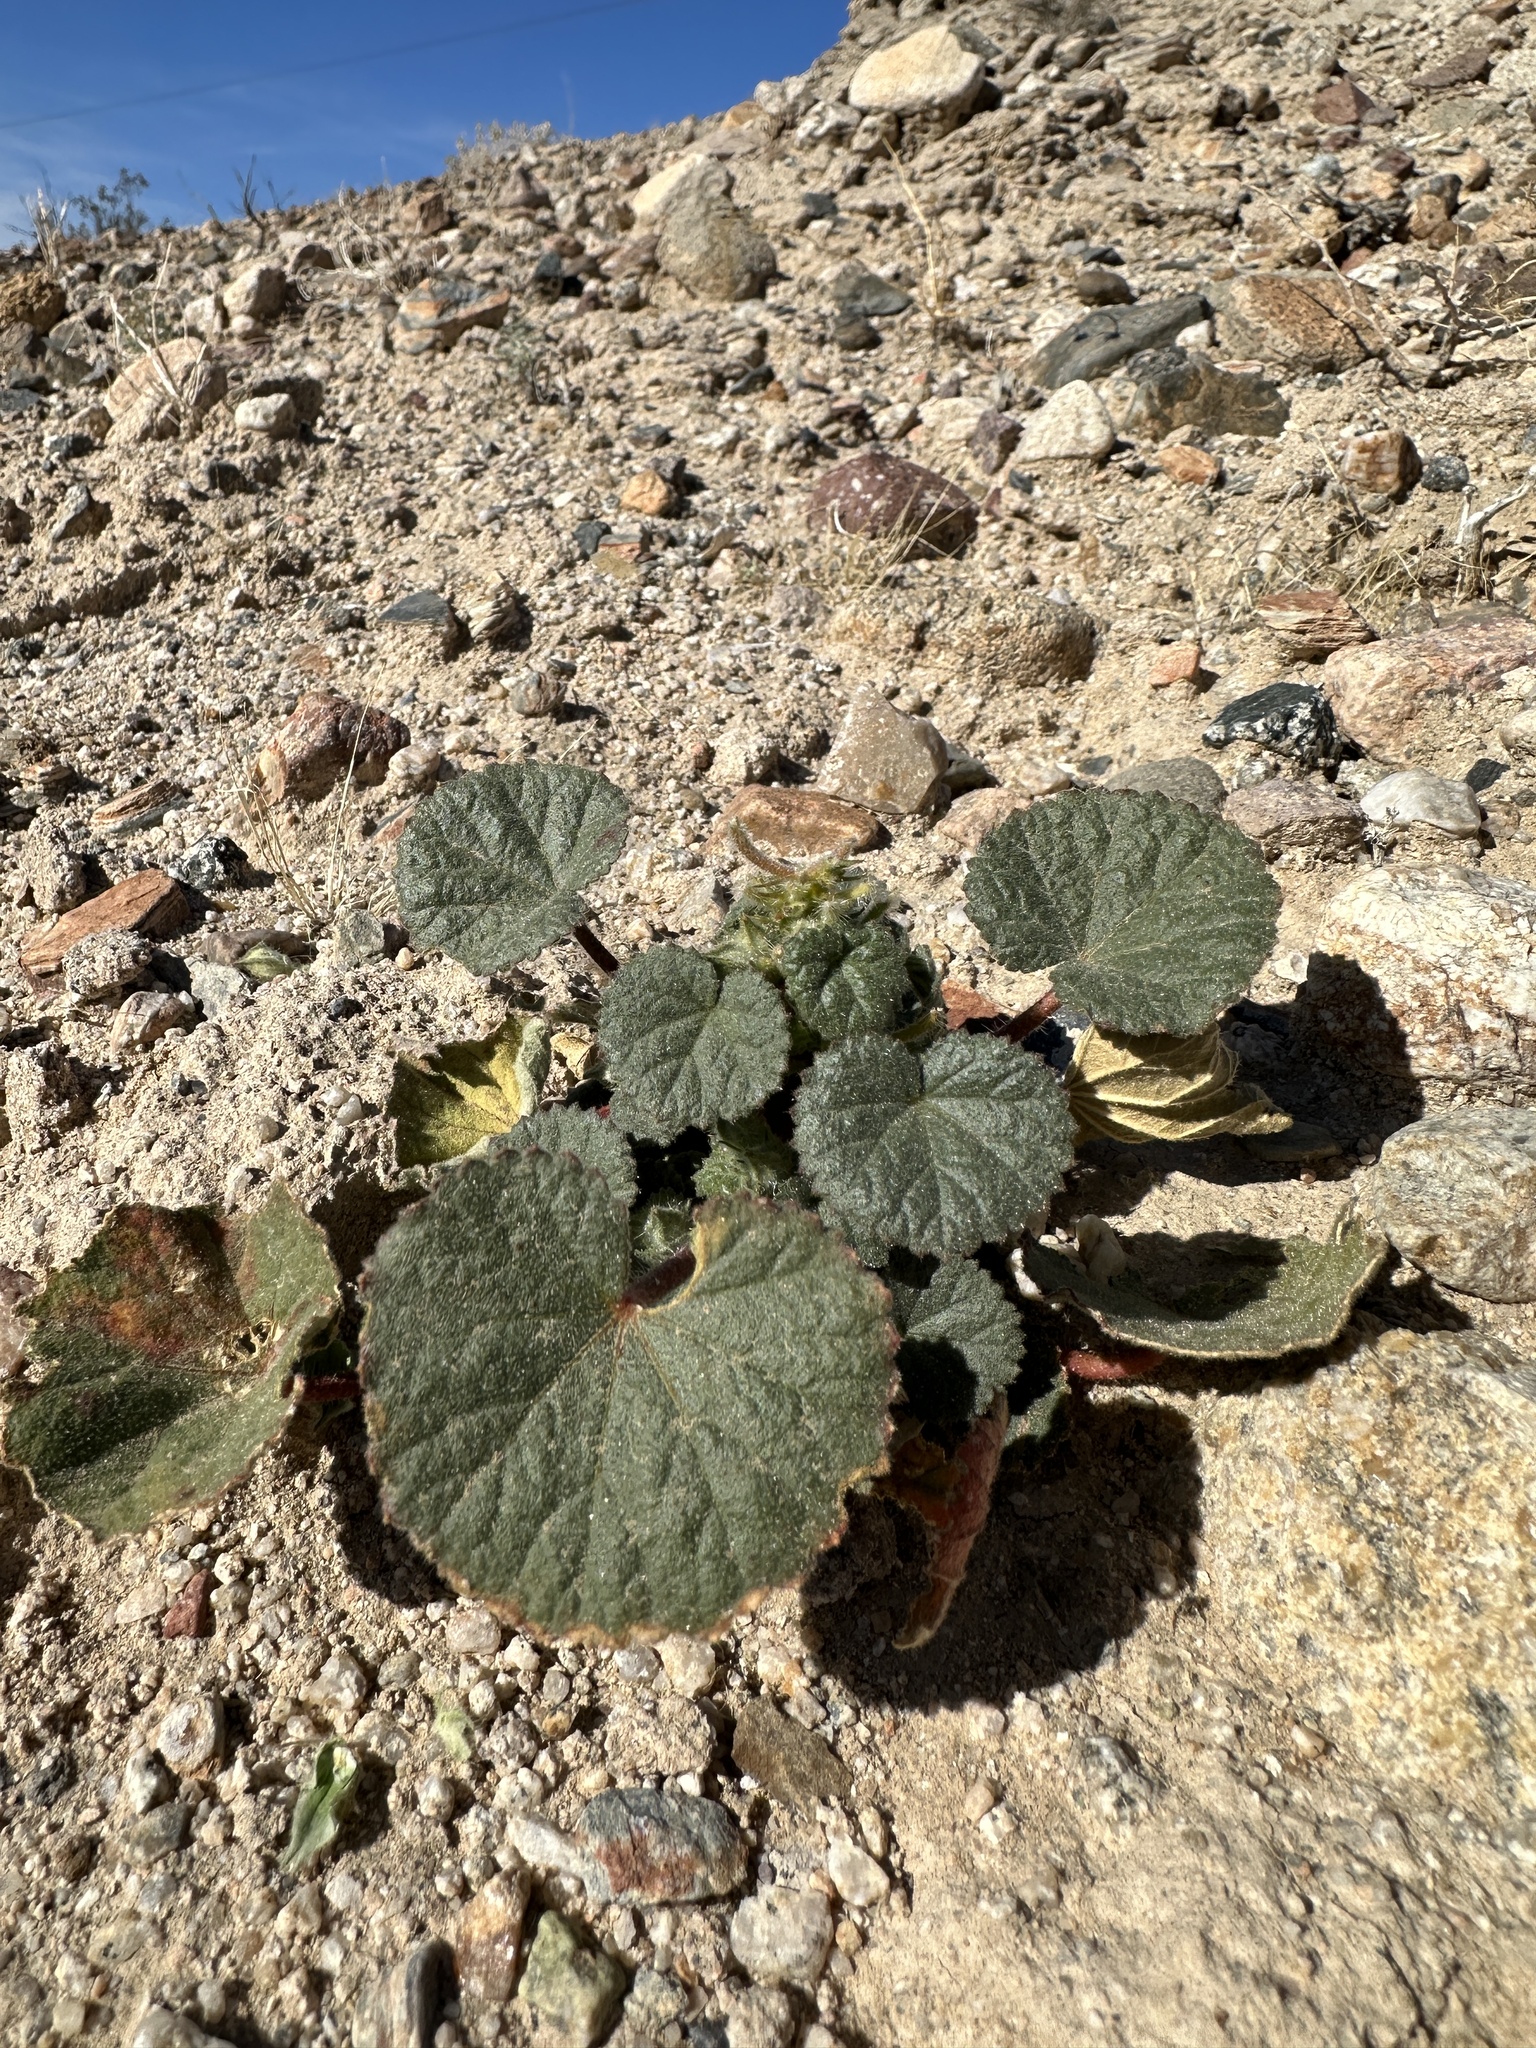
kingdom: Plantae
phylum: Tracheophyta
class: Magnoliopsida
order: Malvales
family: Malvaceae
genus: Eremalche
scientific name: Eremalche rotundifolia
